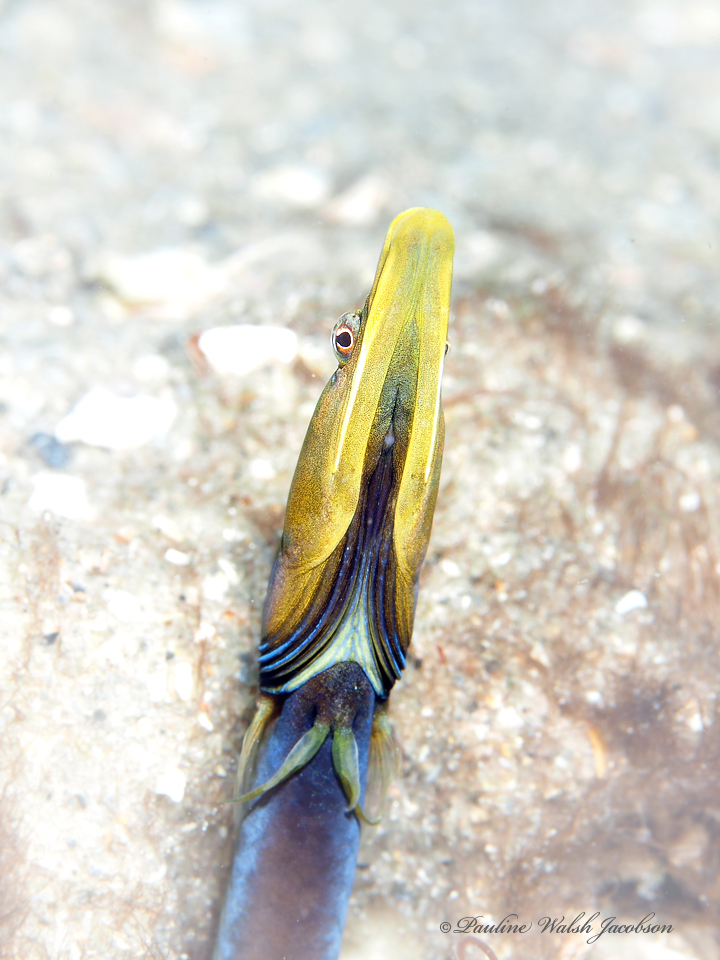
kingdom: Animalia
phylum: Chordata
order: Perciformes
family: Chaenopsidae
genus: Chaenopsis
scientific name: Chaenopsis ocellata
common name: Bluethroat pikeblenny
